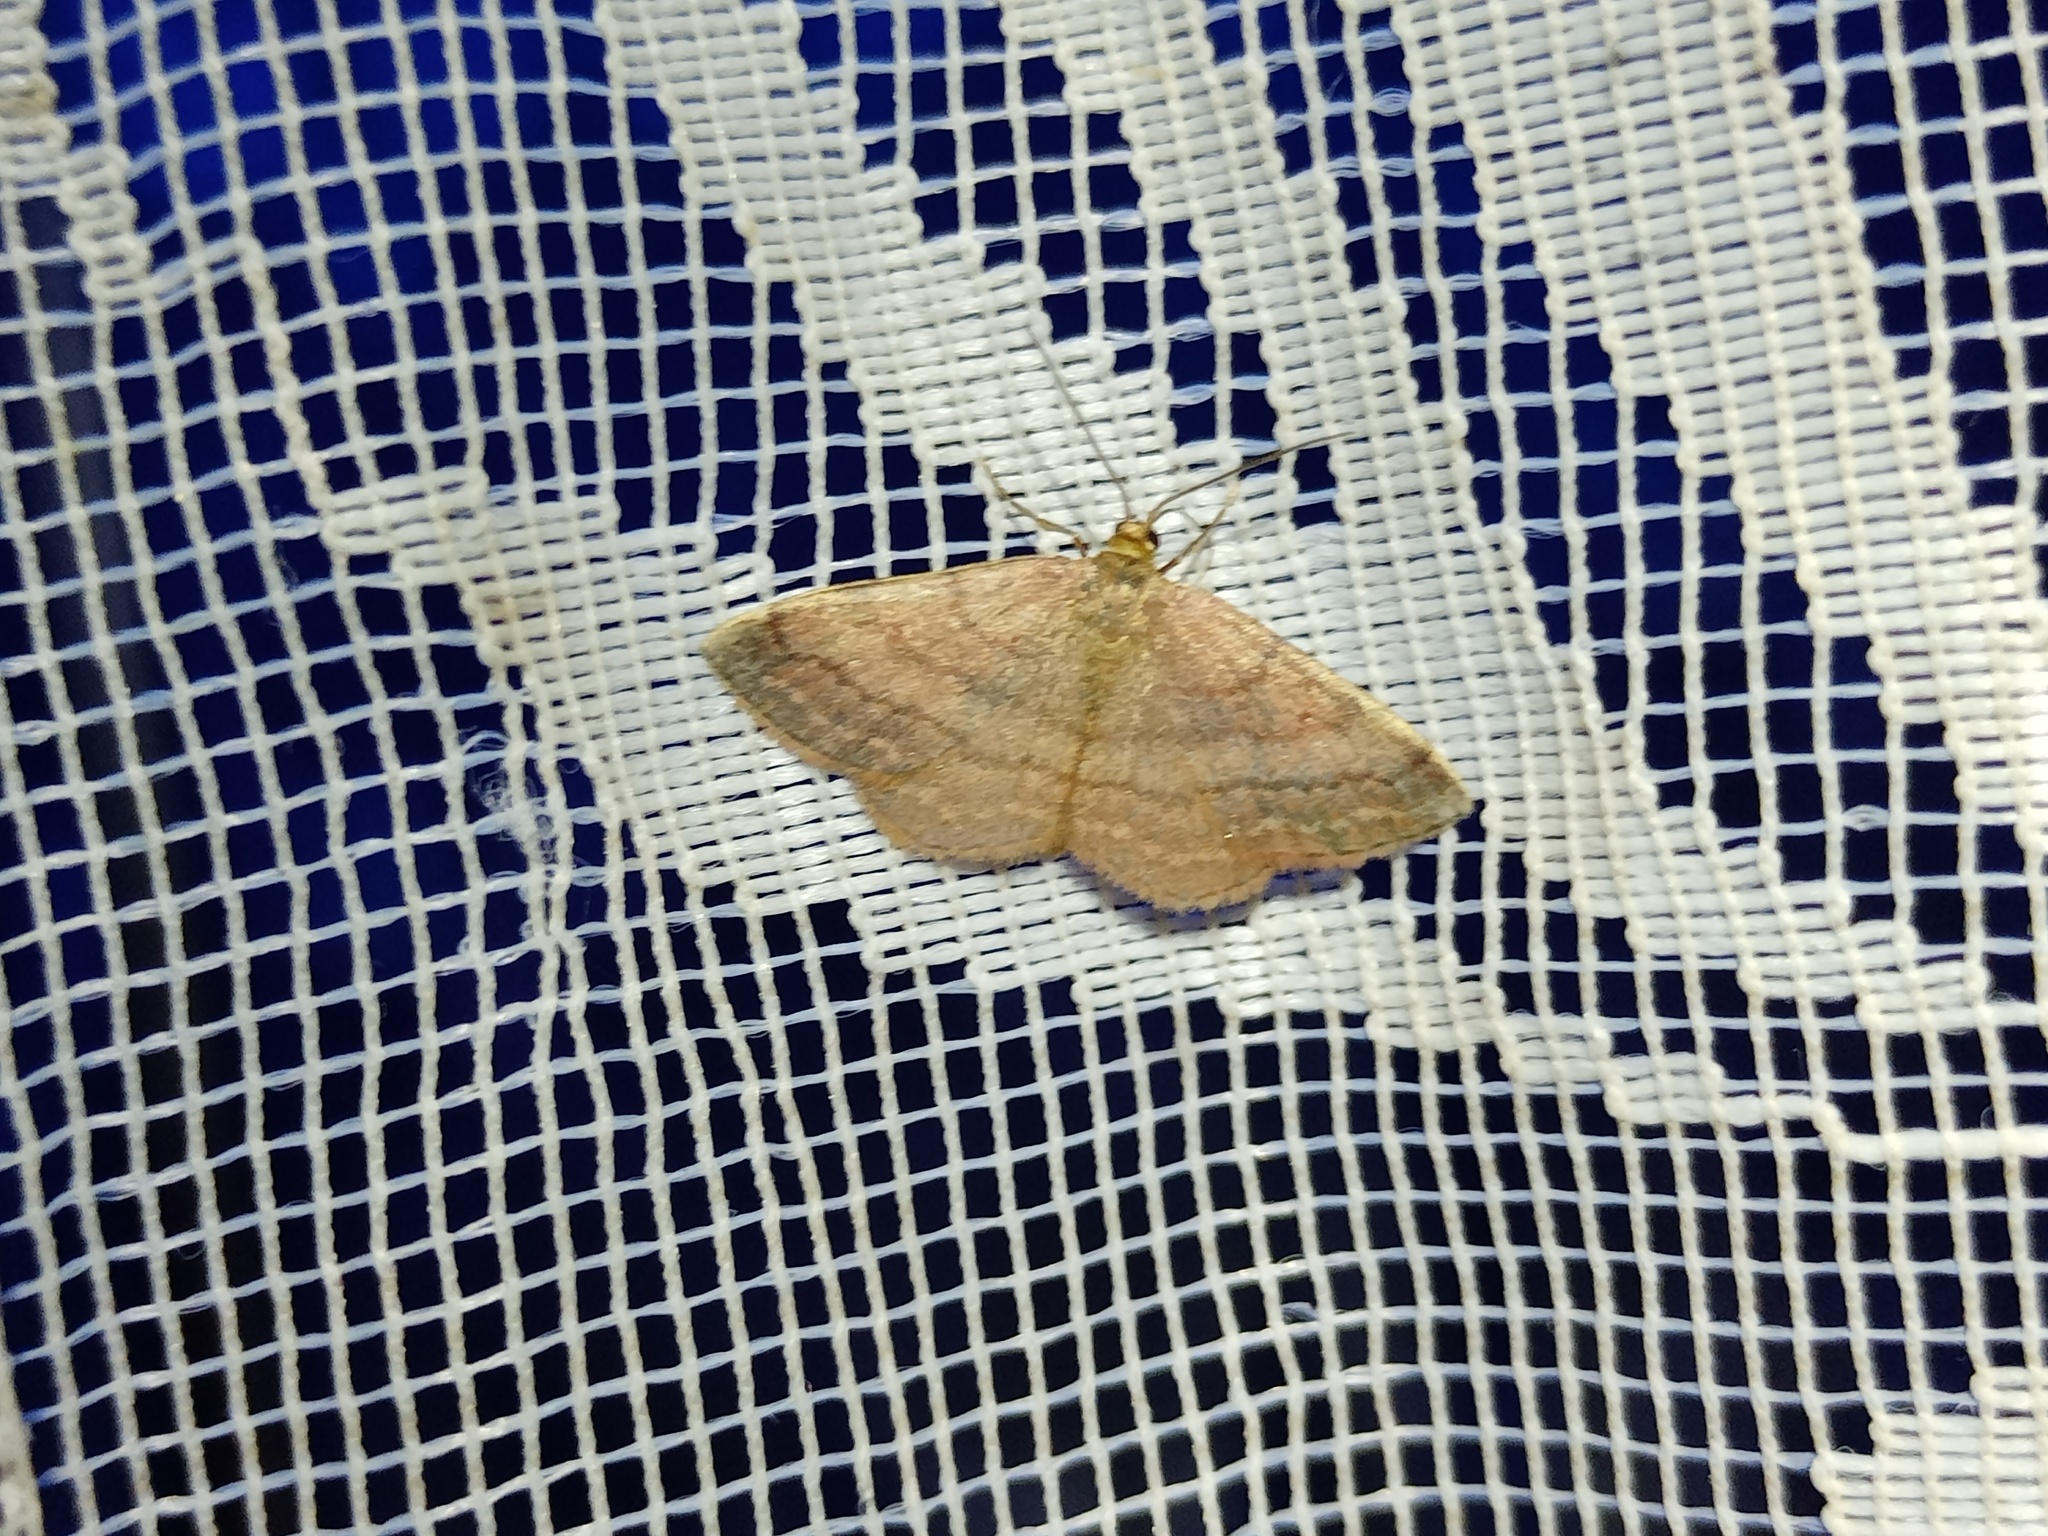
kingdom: Animalia
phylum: Arthropoda
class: Insecta
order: Lepidoptera
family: Geometridae
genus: Scopula
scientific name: Scopula rubiginata
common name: Tawny wave
